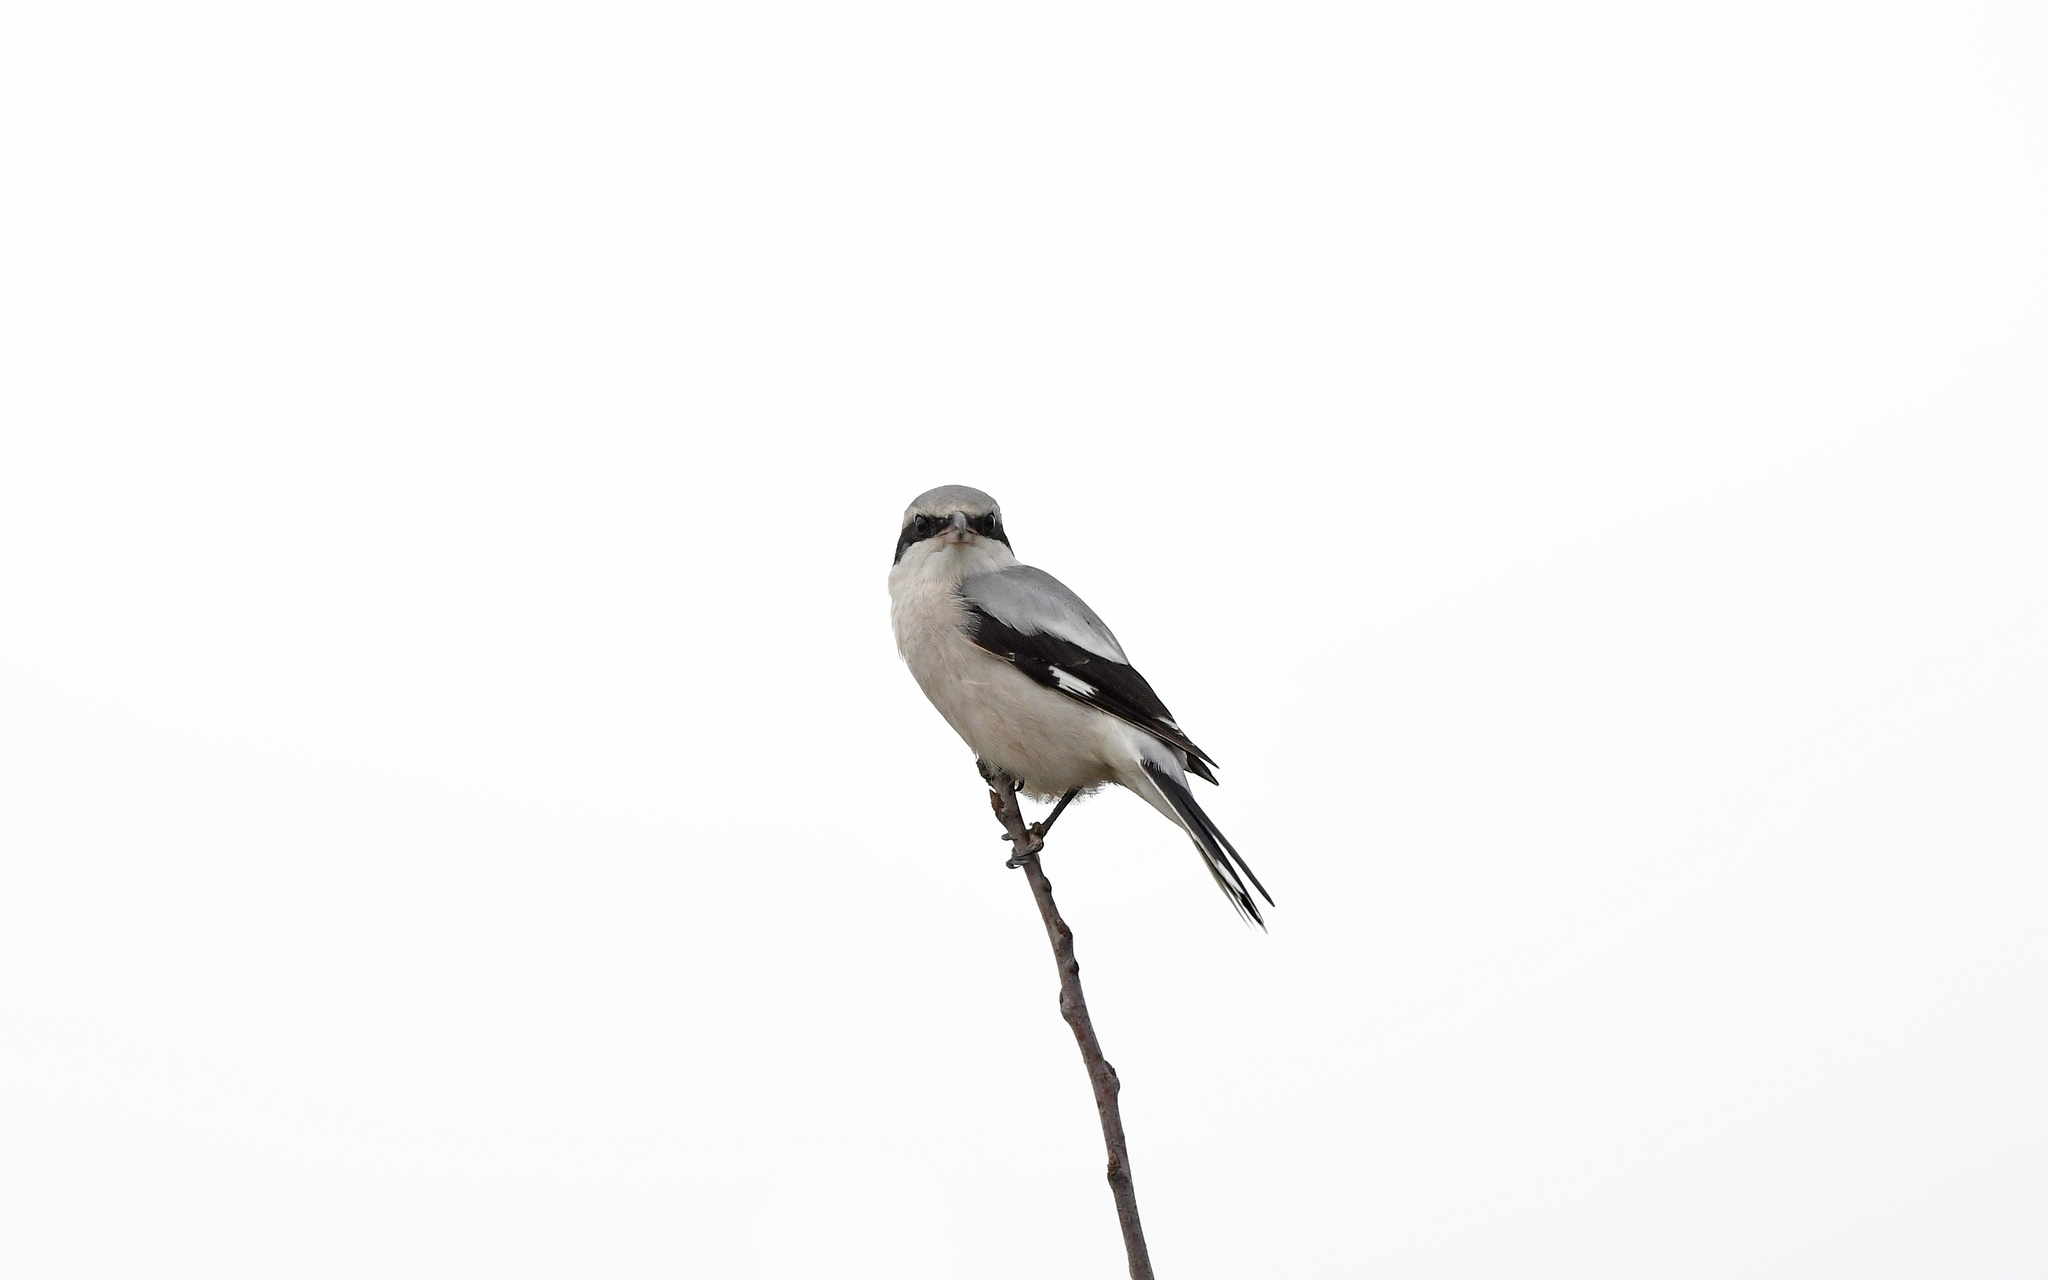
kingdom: Animalia
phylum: Chordata
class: Aves
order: Passeriformes
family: Laniidae
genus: Lanius
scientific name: Lanius excubitor
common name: Great grey shrike
